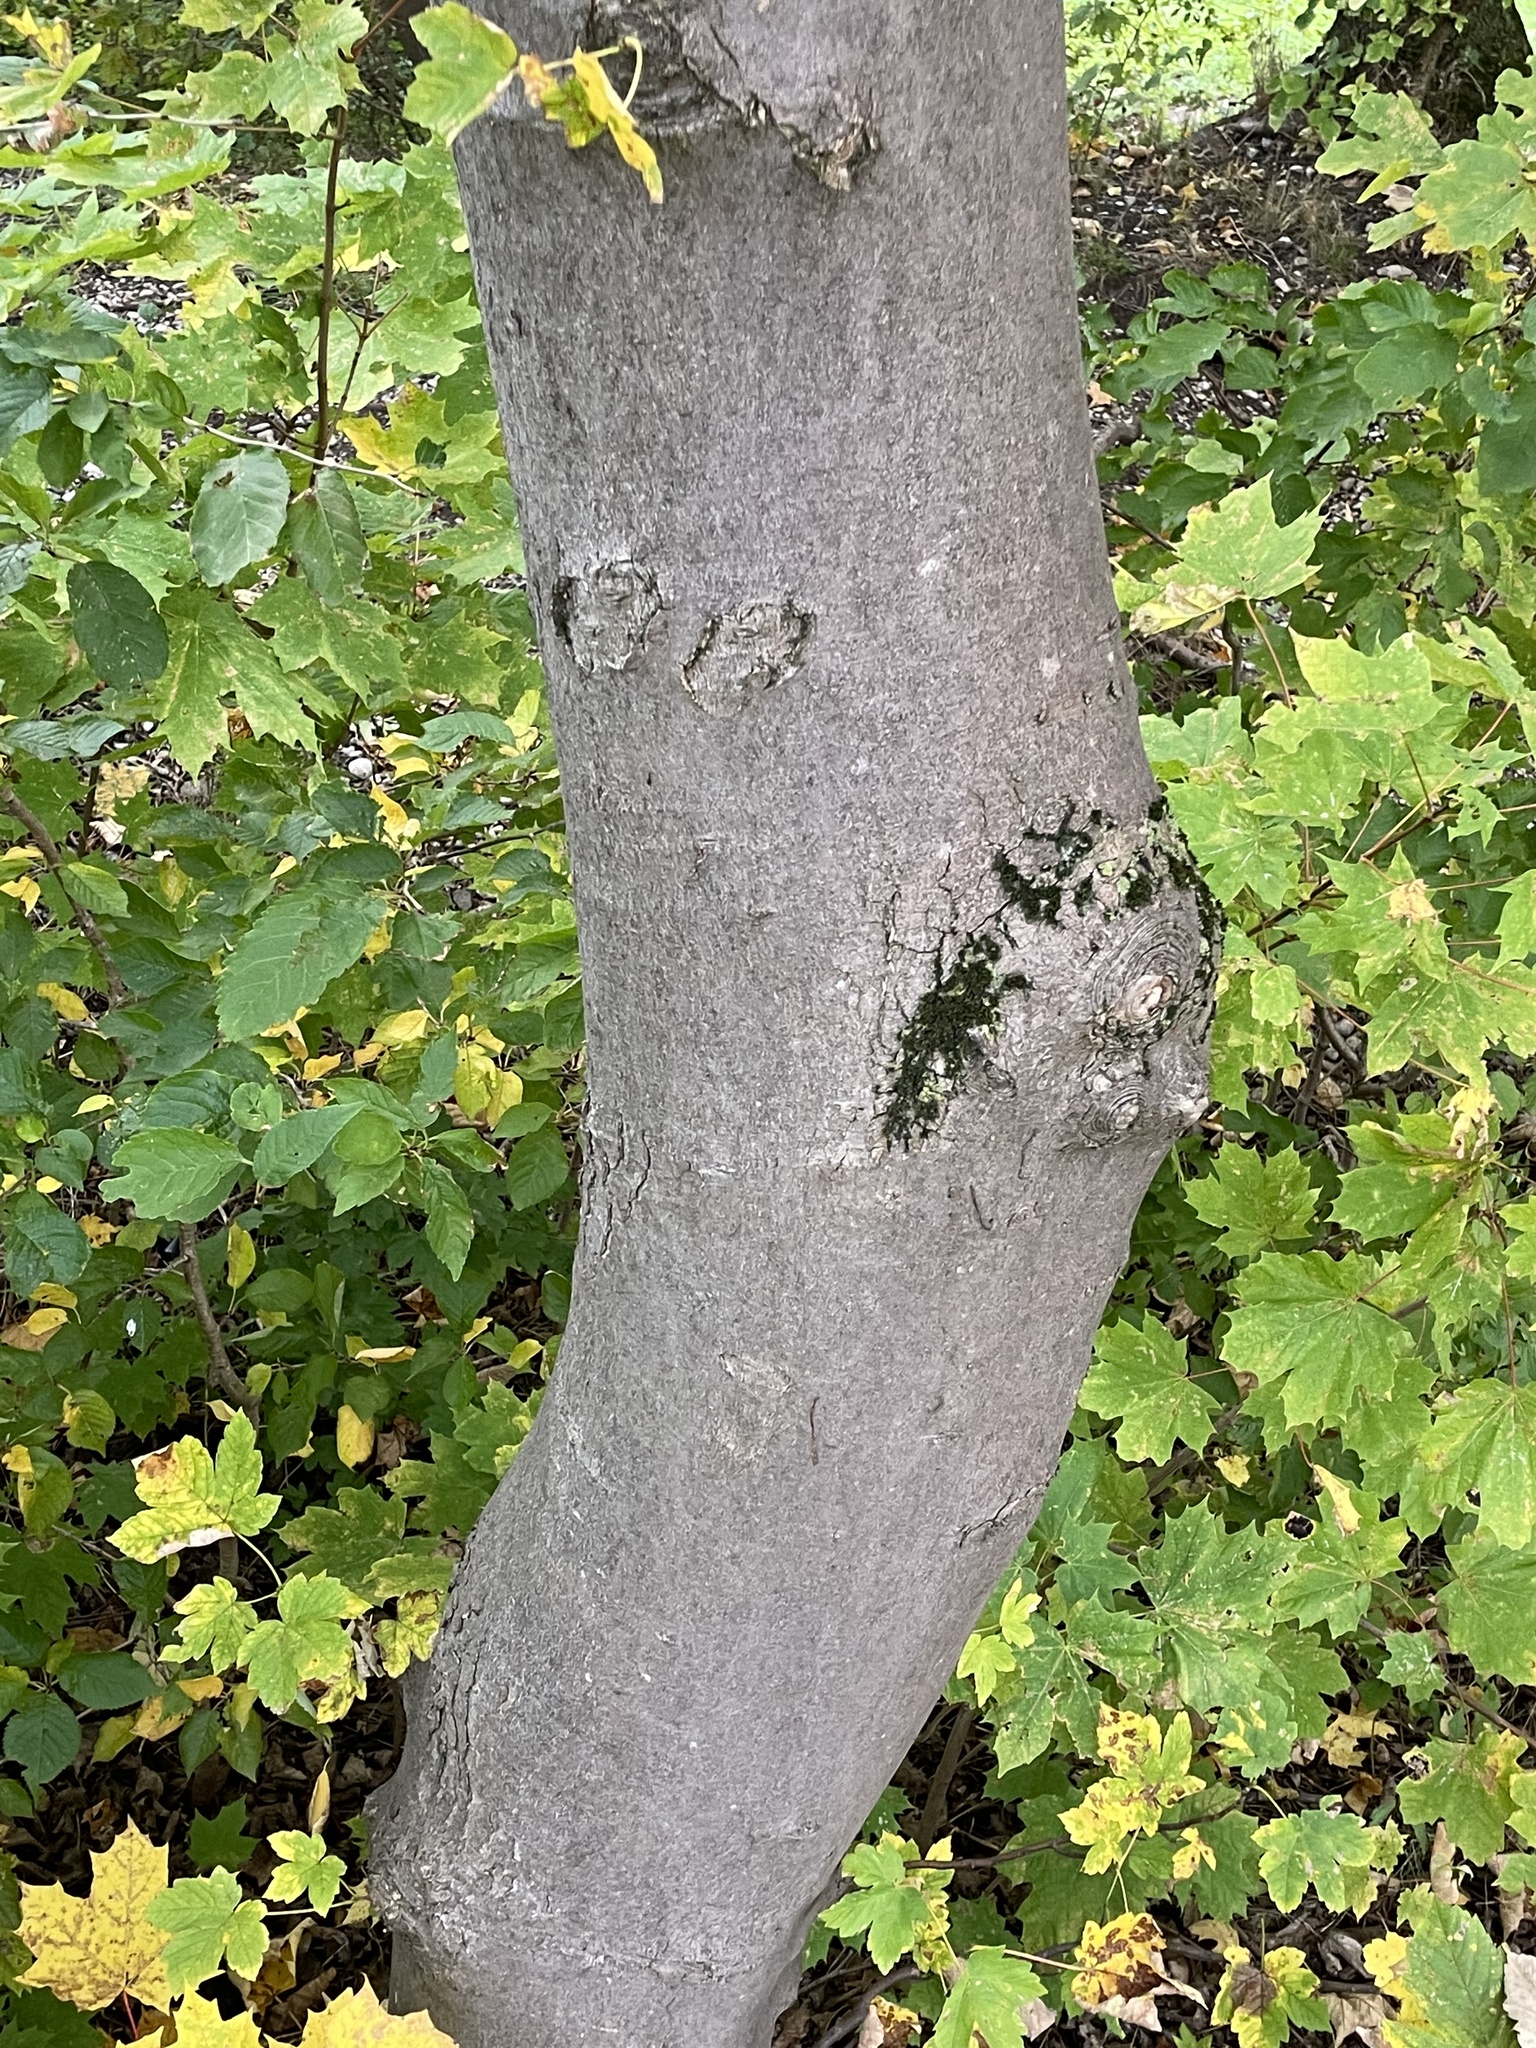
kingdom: Plantae
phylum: Tracheophyta
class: Magnoliopsida
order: Sapindales
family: Sapindaceae
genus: Acer
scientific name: Acer platanoides
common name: Norway maple
